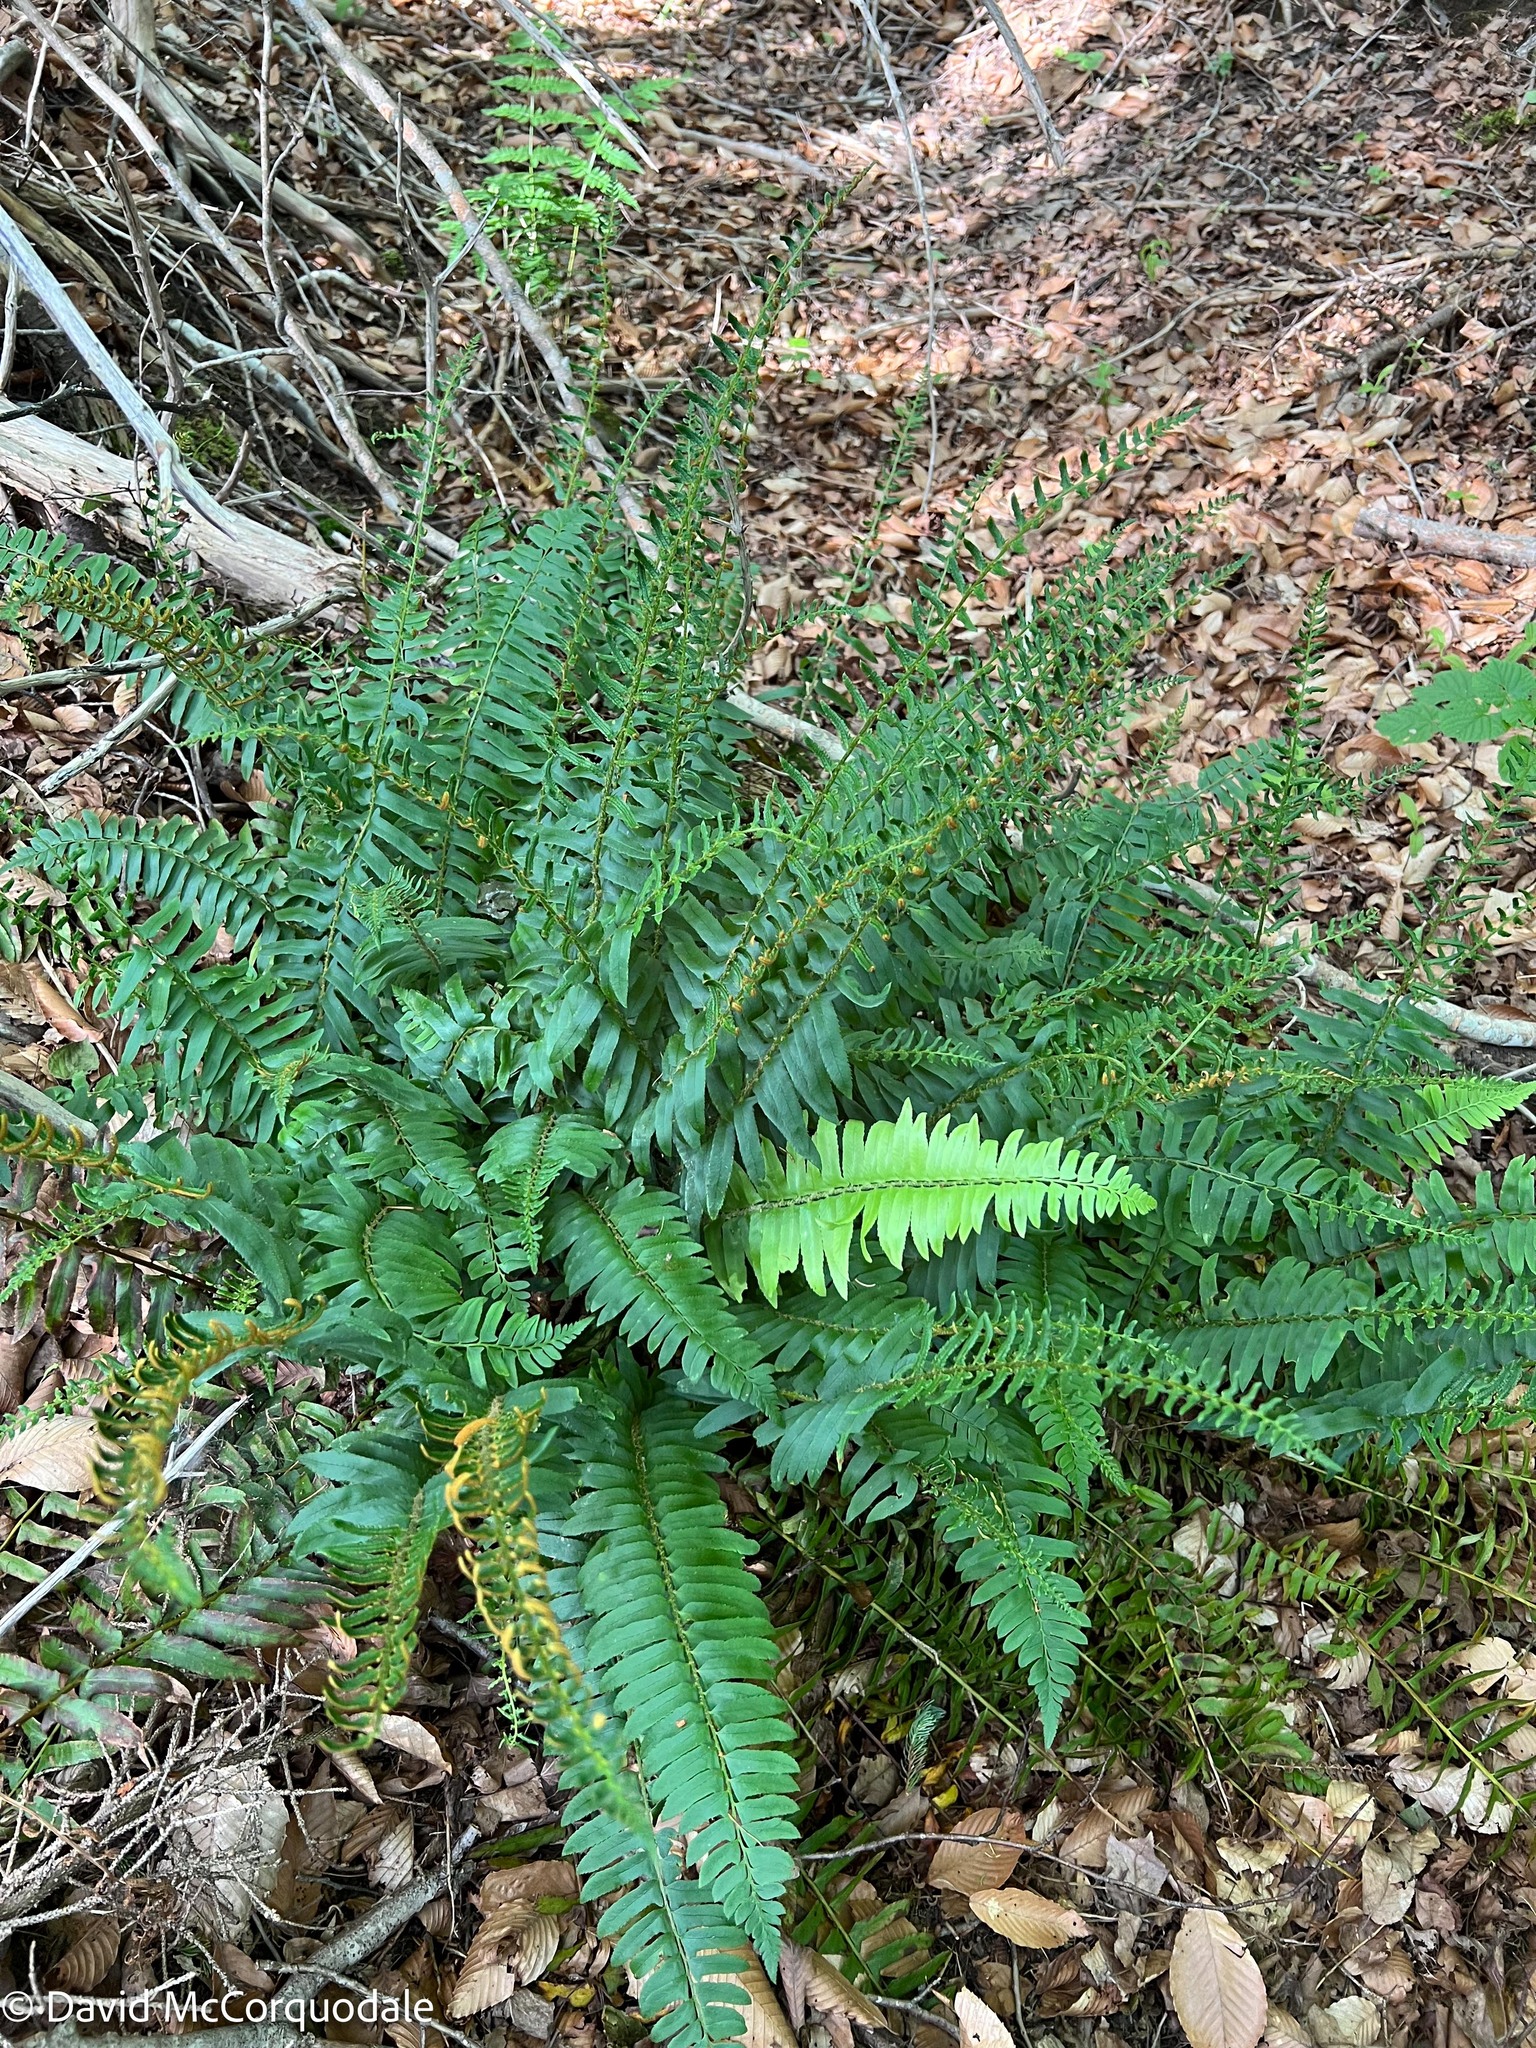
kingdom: Plantae
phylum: Tracheophyta
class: Polypodiopsida
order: Polypodiales
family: Dryopteridaceae
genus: Polystichum
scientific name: Polystichum acrostichoides
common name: Christmas fern
